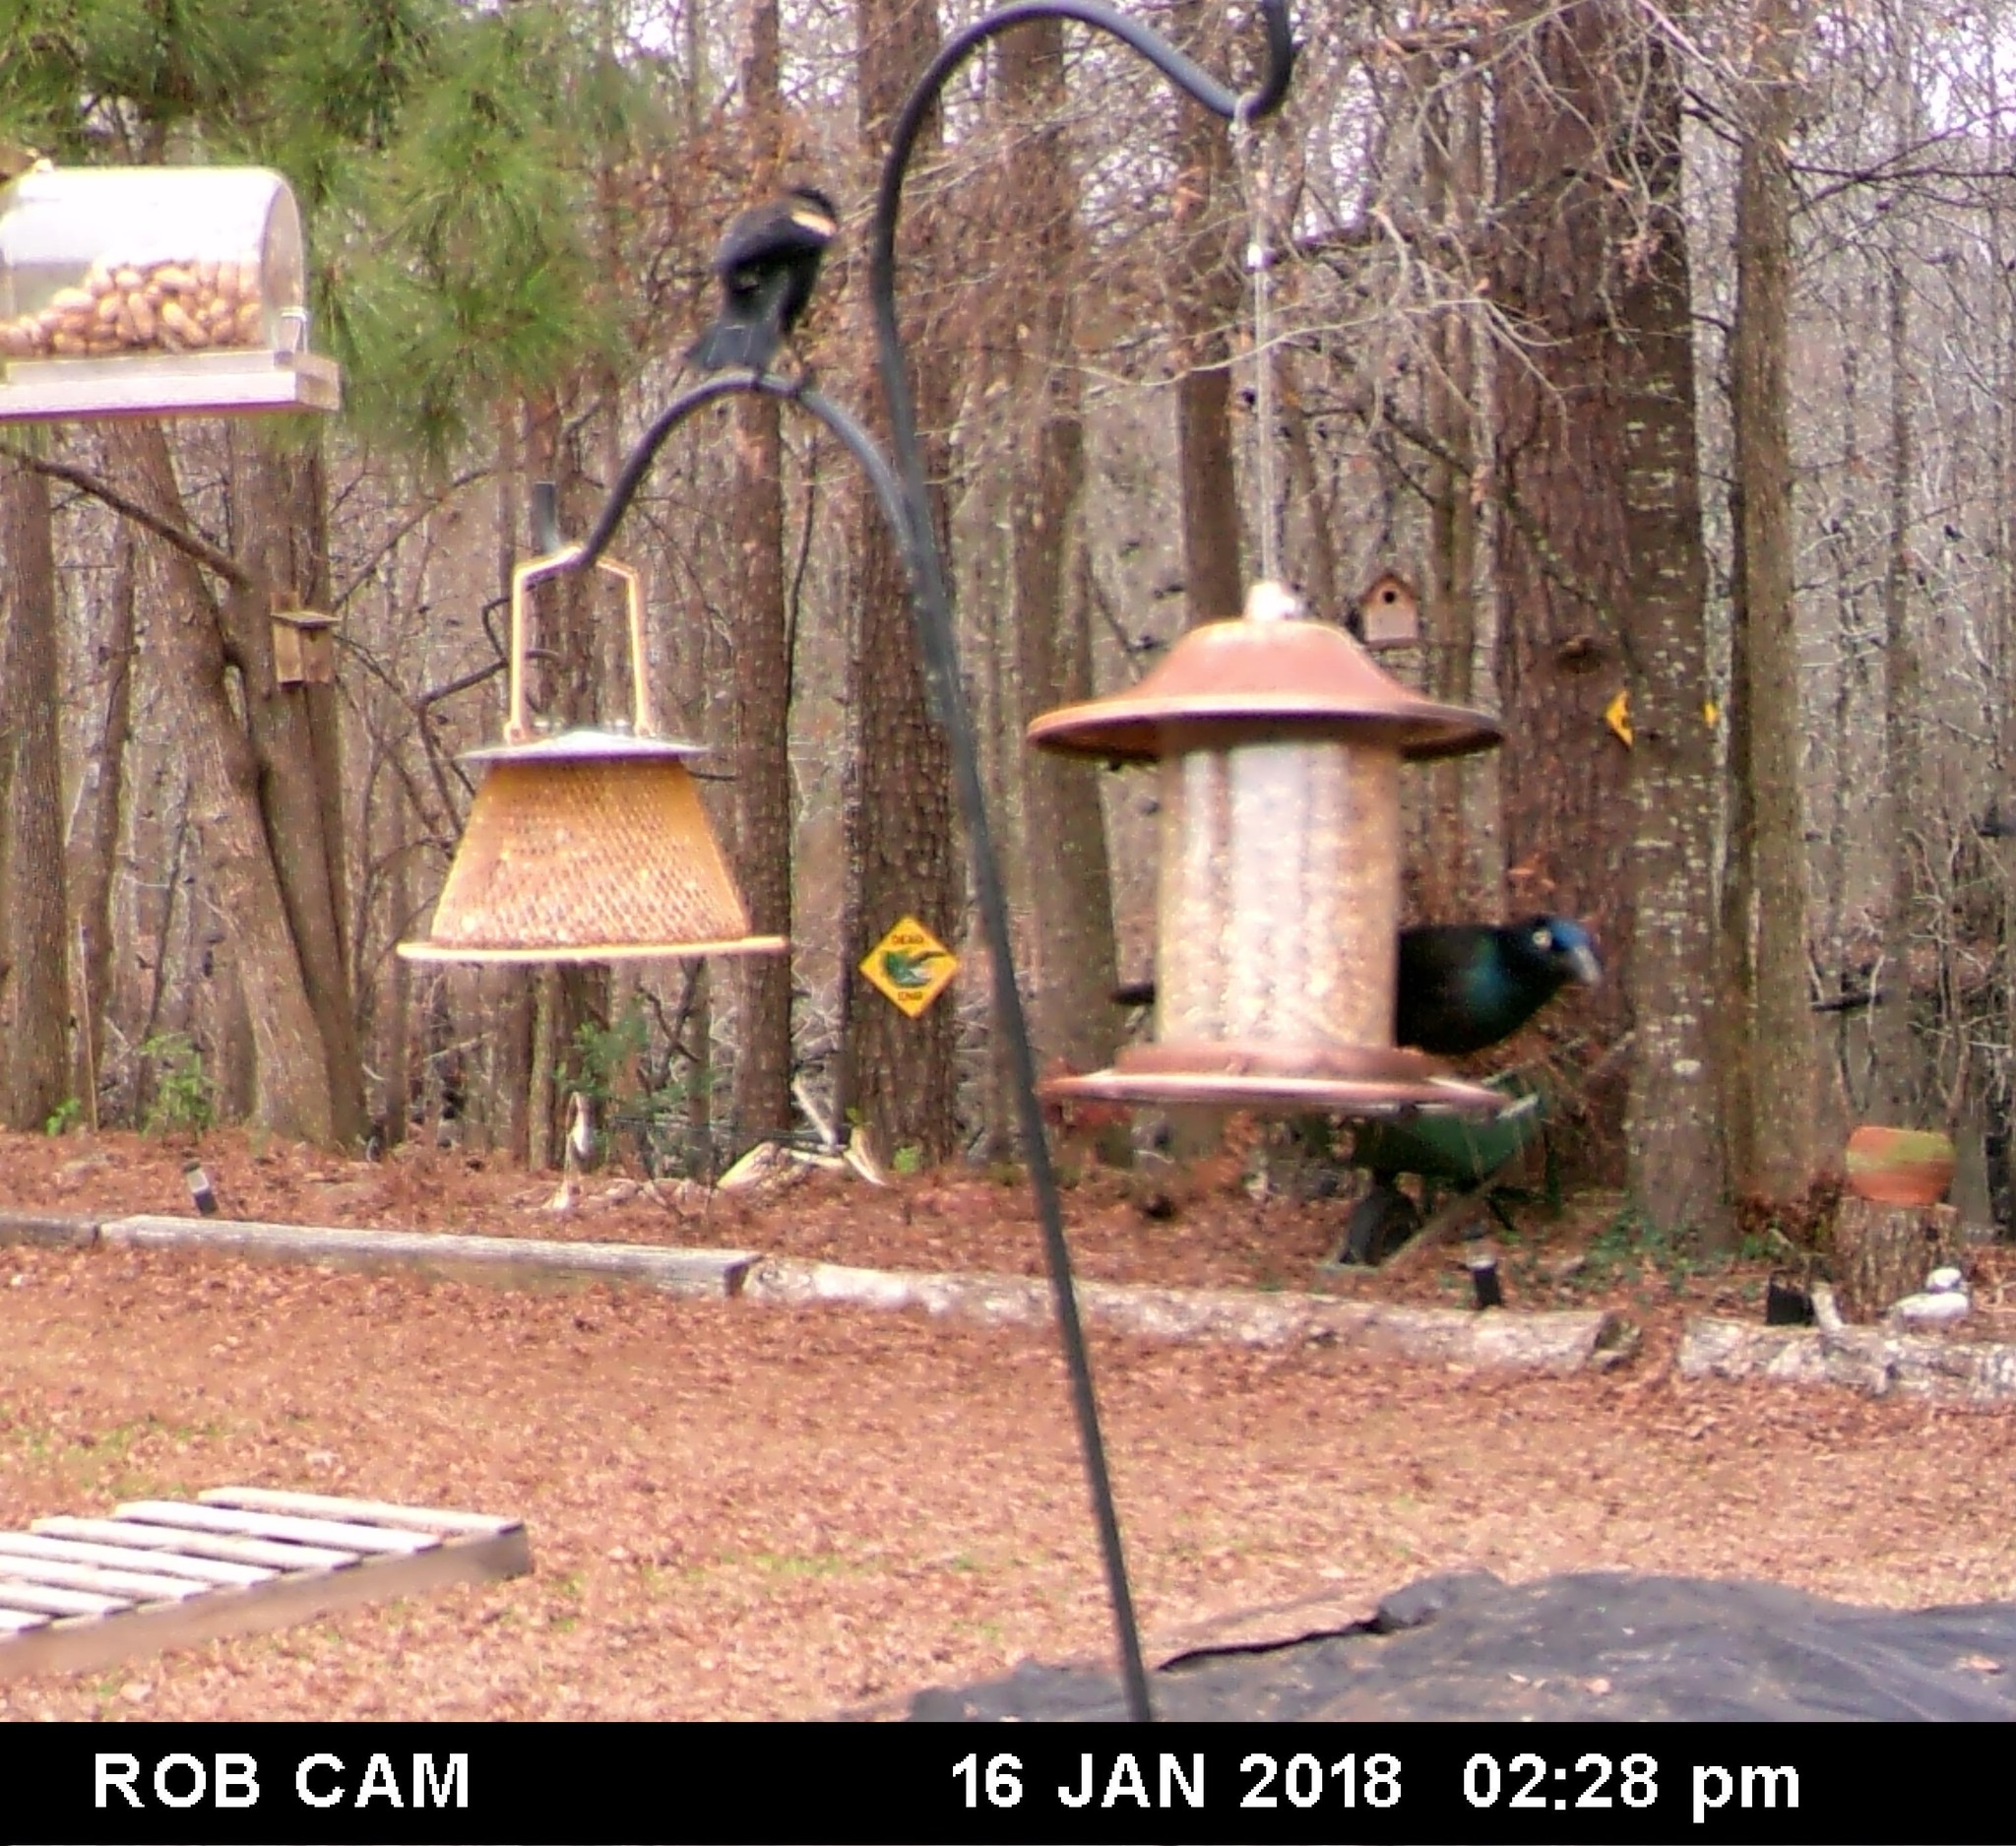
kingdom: Animalia
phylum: Chordata
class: Aves
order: Passeriformes
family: Icteridae
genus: Quiscalus
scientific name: Quiscalus quiscula
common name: Common grackle
